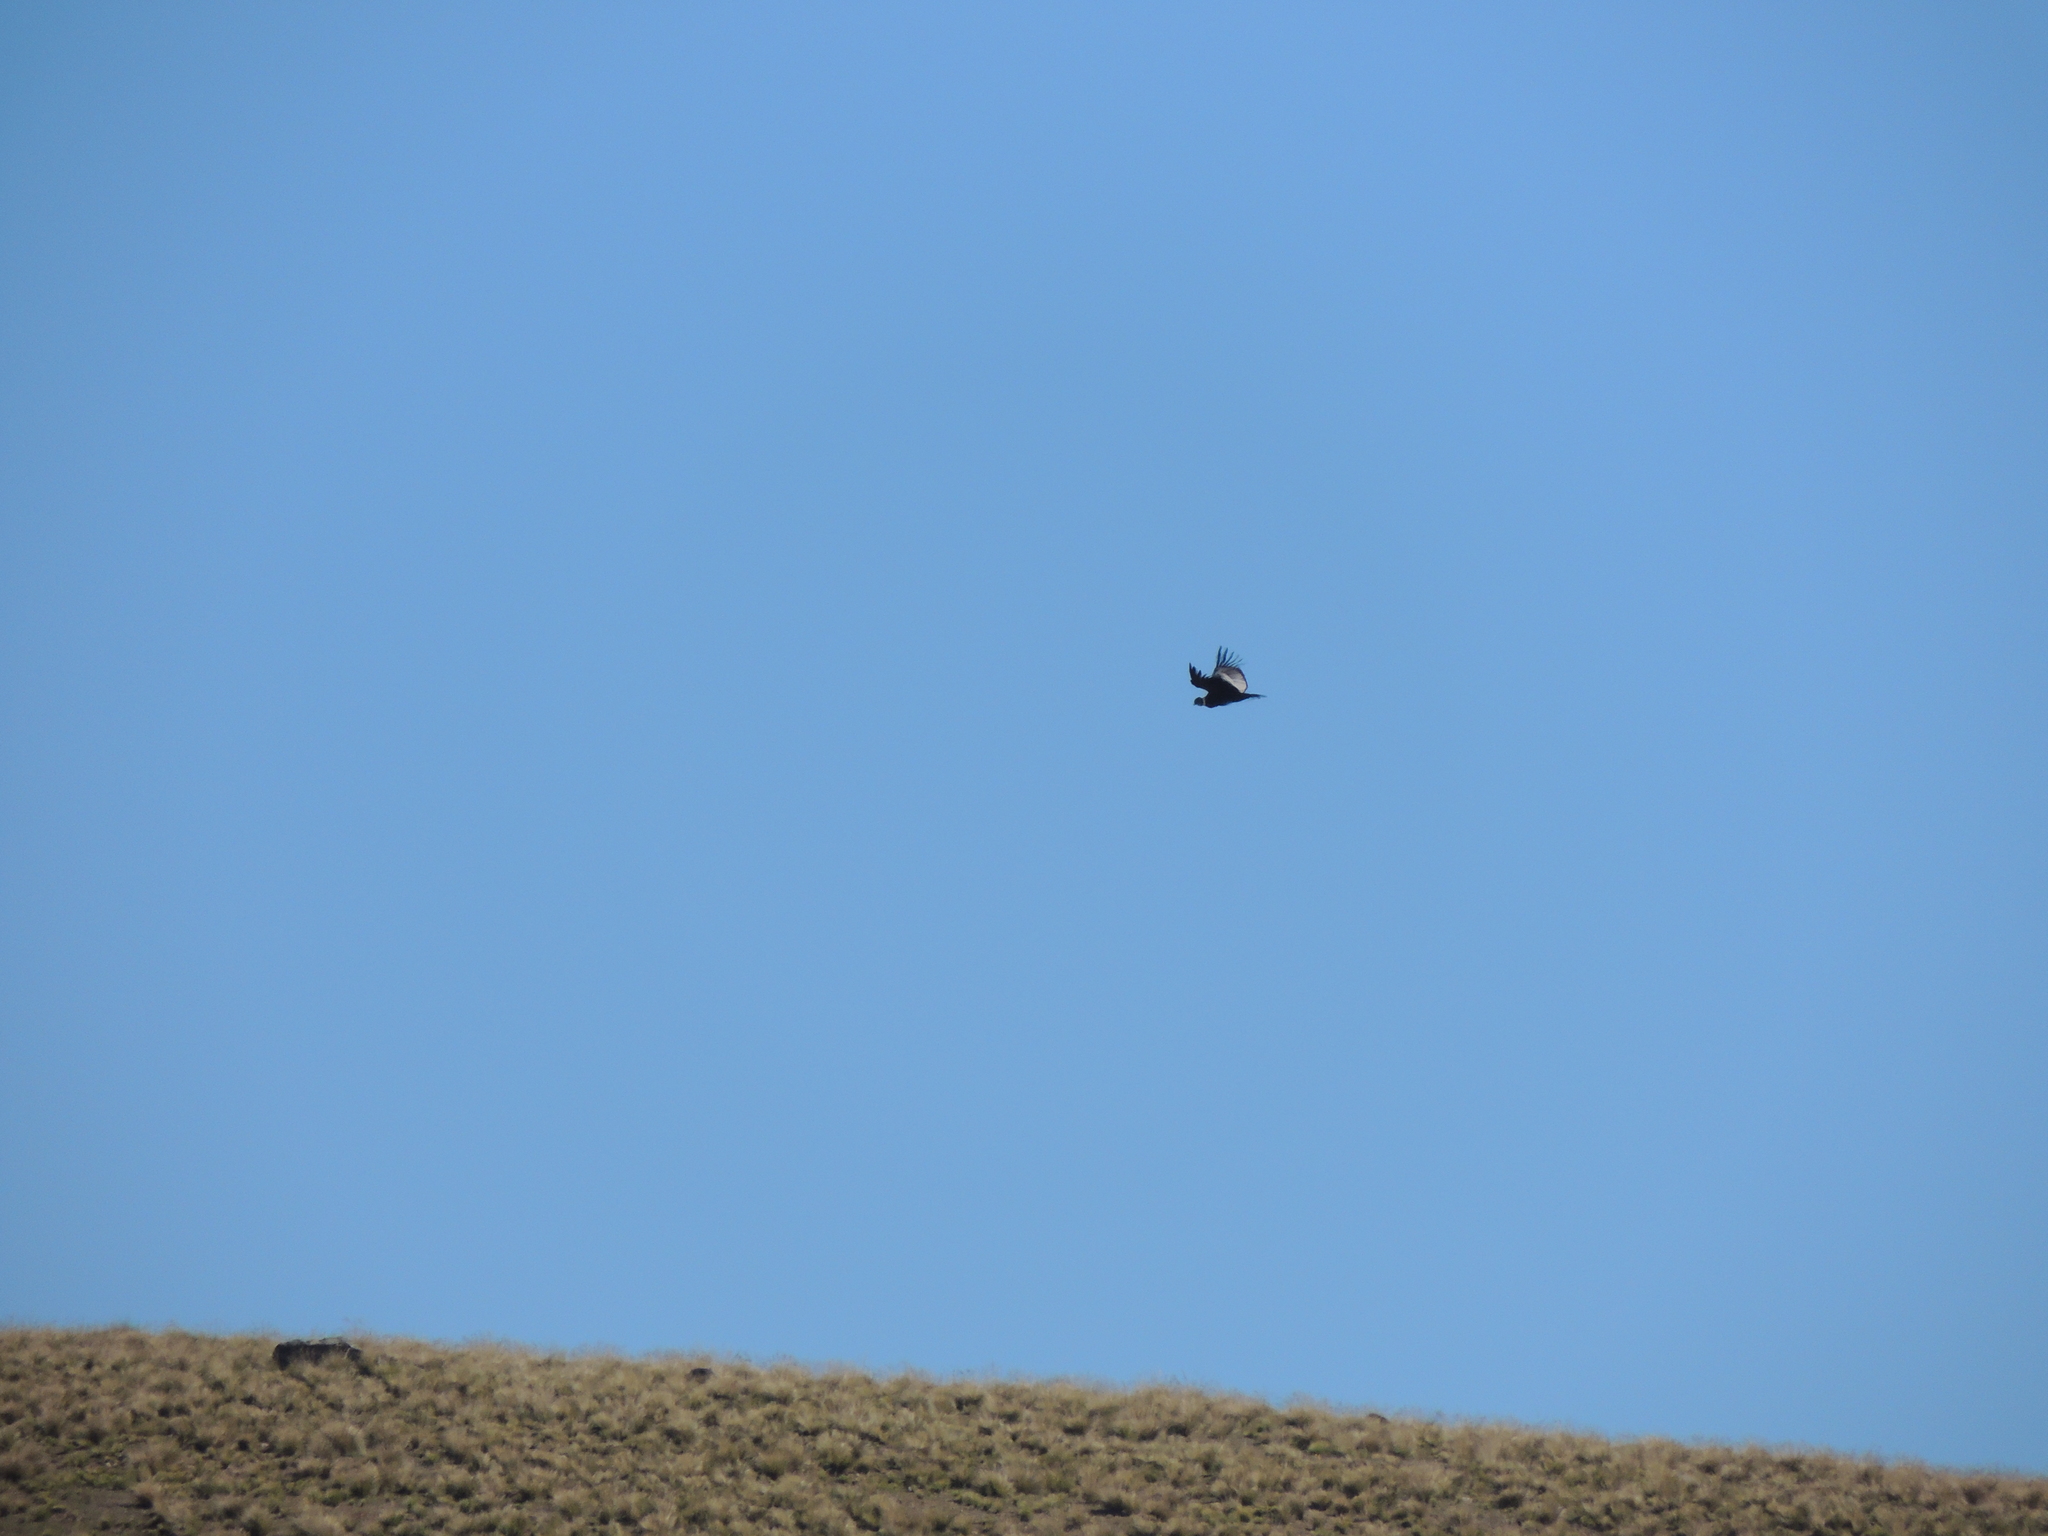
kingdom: Animalia
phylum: Chordata
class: Aves
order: Accipitriformes
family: Cathartidae
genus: Vultur
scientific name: Vultur gryphus
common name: Andean condor
